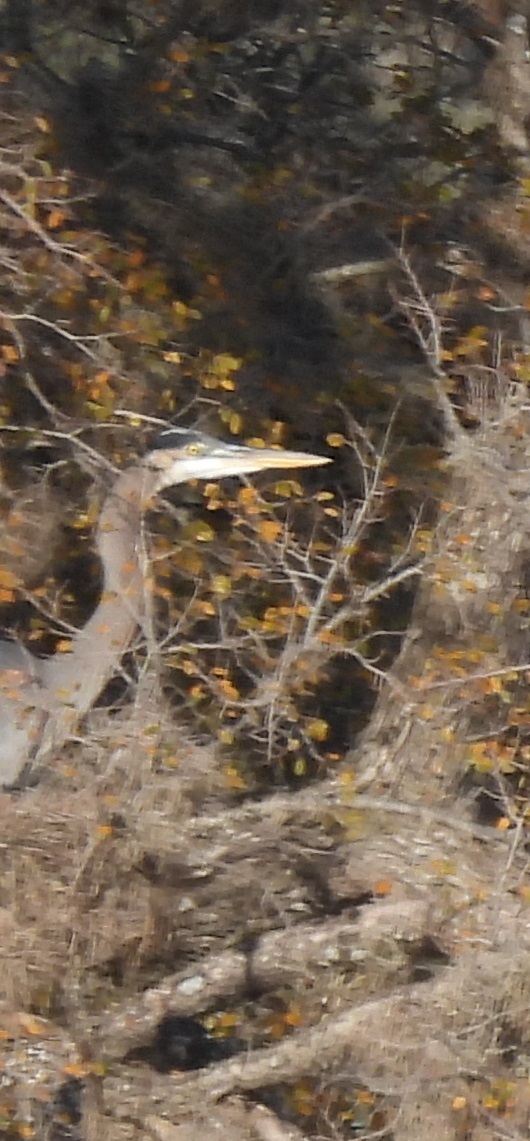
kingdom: Animalia
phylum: Chordata
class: Aves
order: Pelecaniformes
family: Ardeidae
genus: Ardea
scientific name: Ardea herodias
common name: Great blue heron
